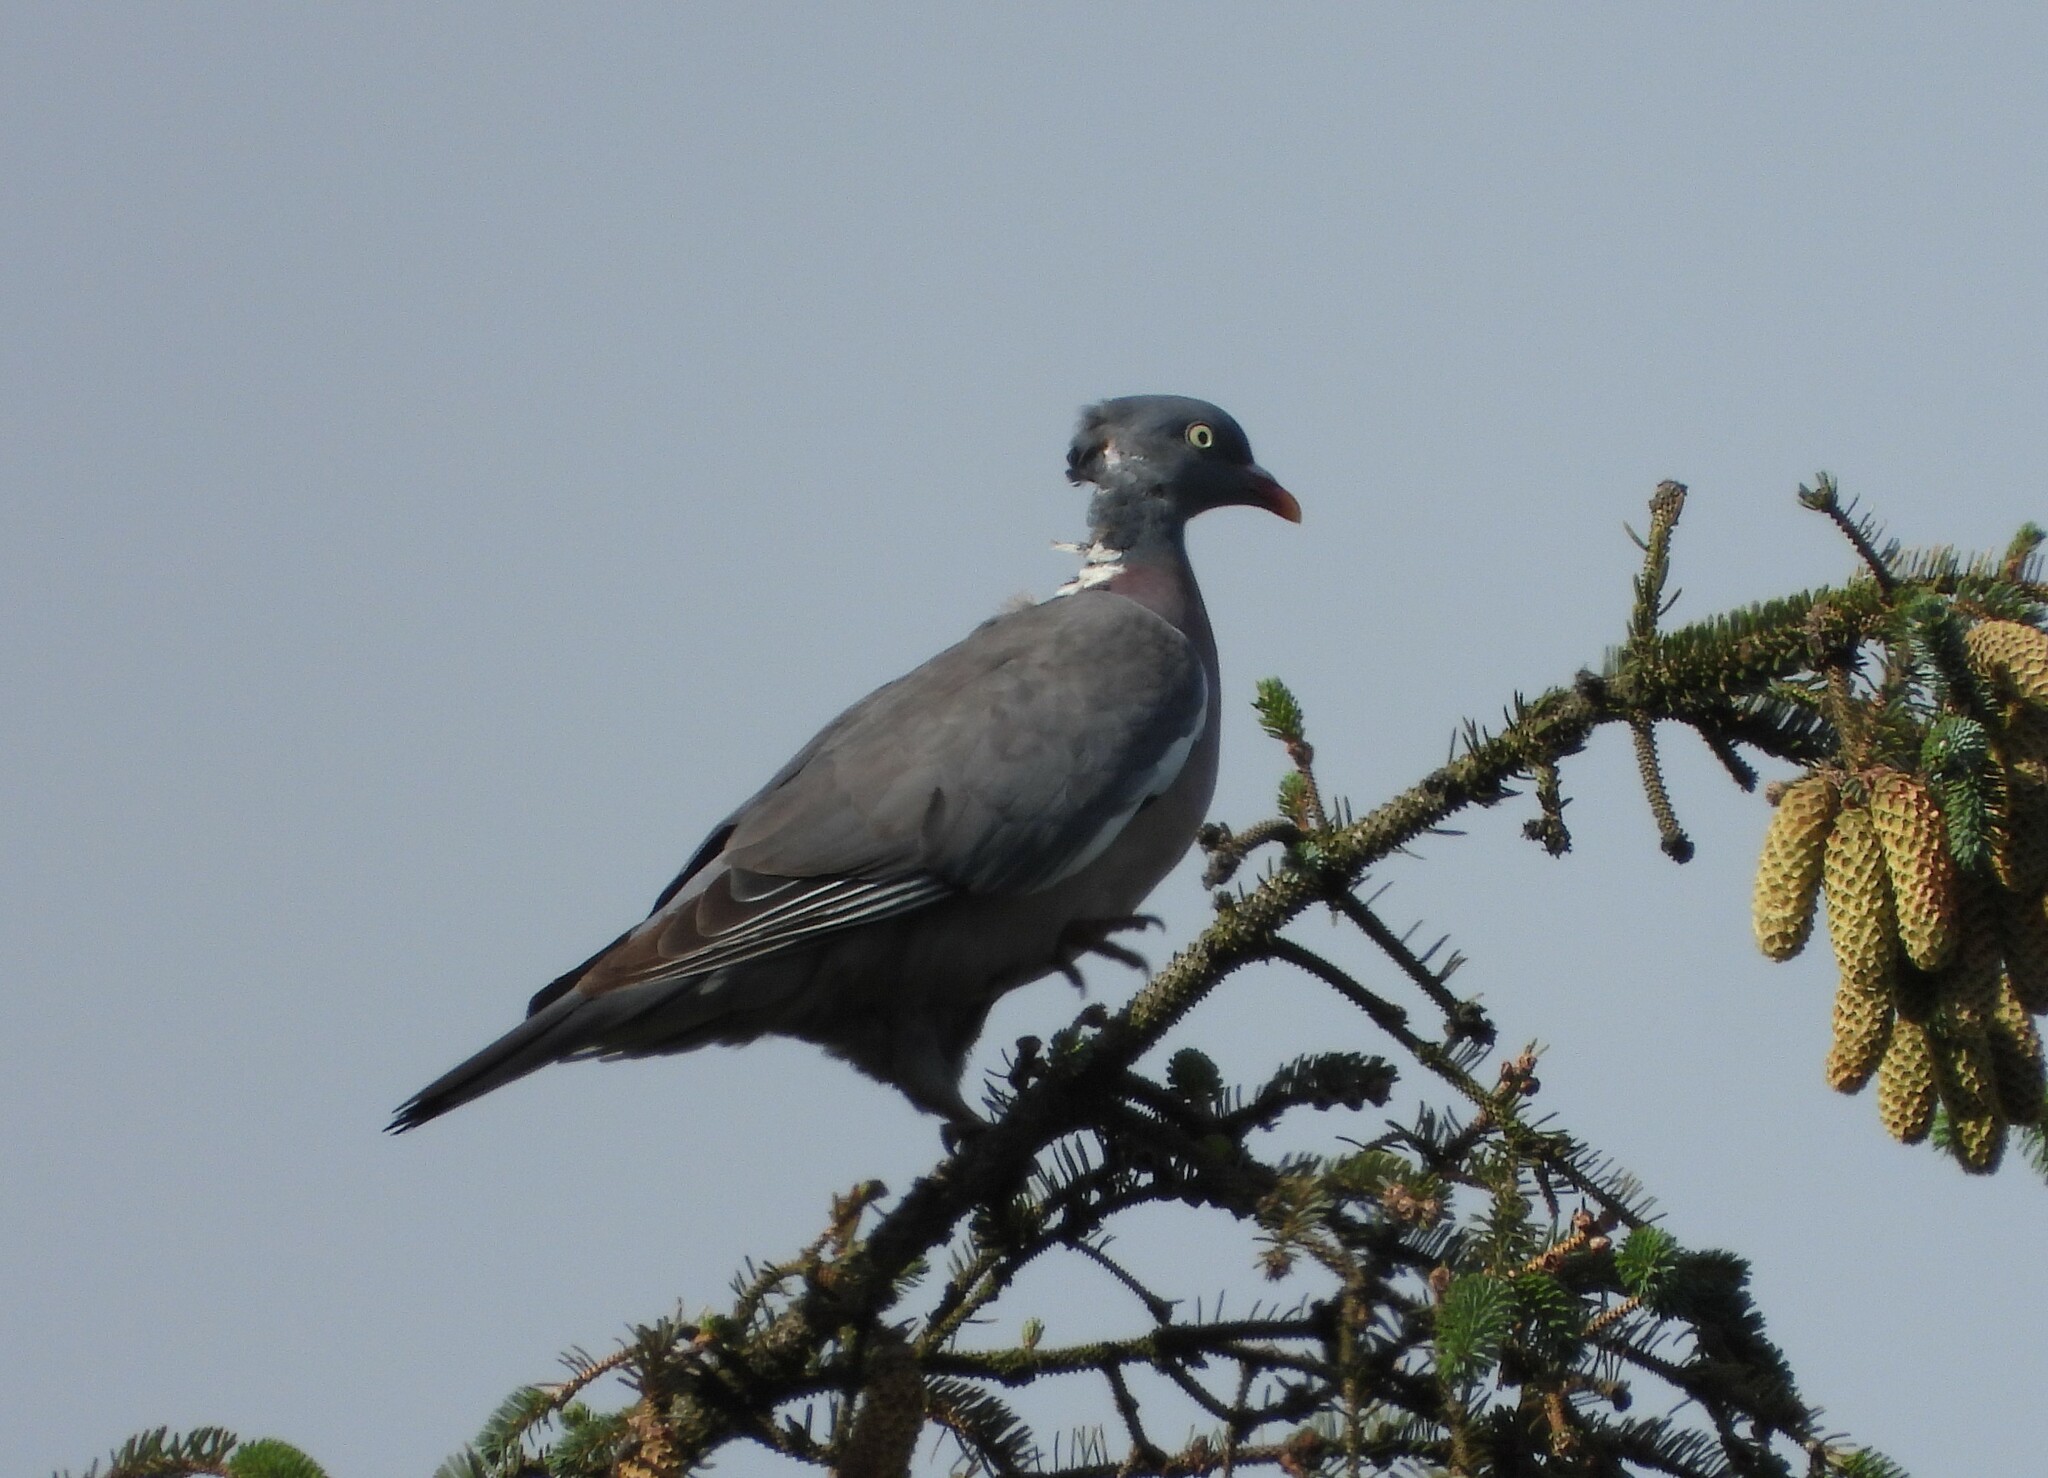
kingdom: Animalia
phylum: Chordata
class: Aves
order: Columbiformes
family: Columbidae
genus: Columba
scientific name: Columba palumbus
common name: Common wood pigeon
